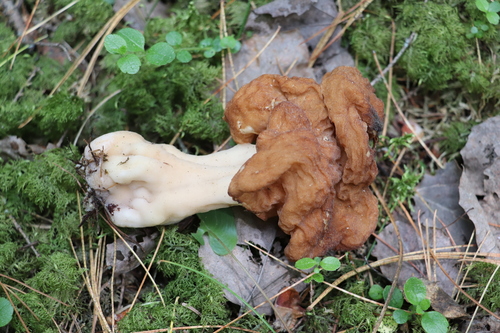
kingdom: Fungi
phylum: Ascomycota
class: Pezizomycetes
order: Pezizales
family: Discinaceae
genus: Gyromitra
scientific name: Gyromitra
